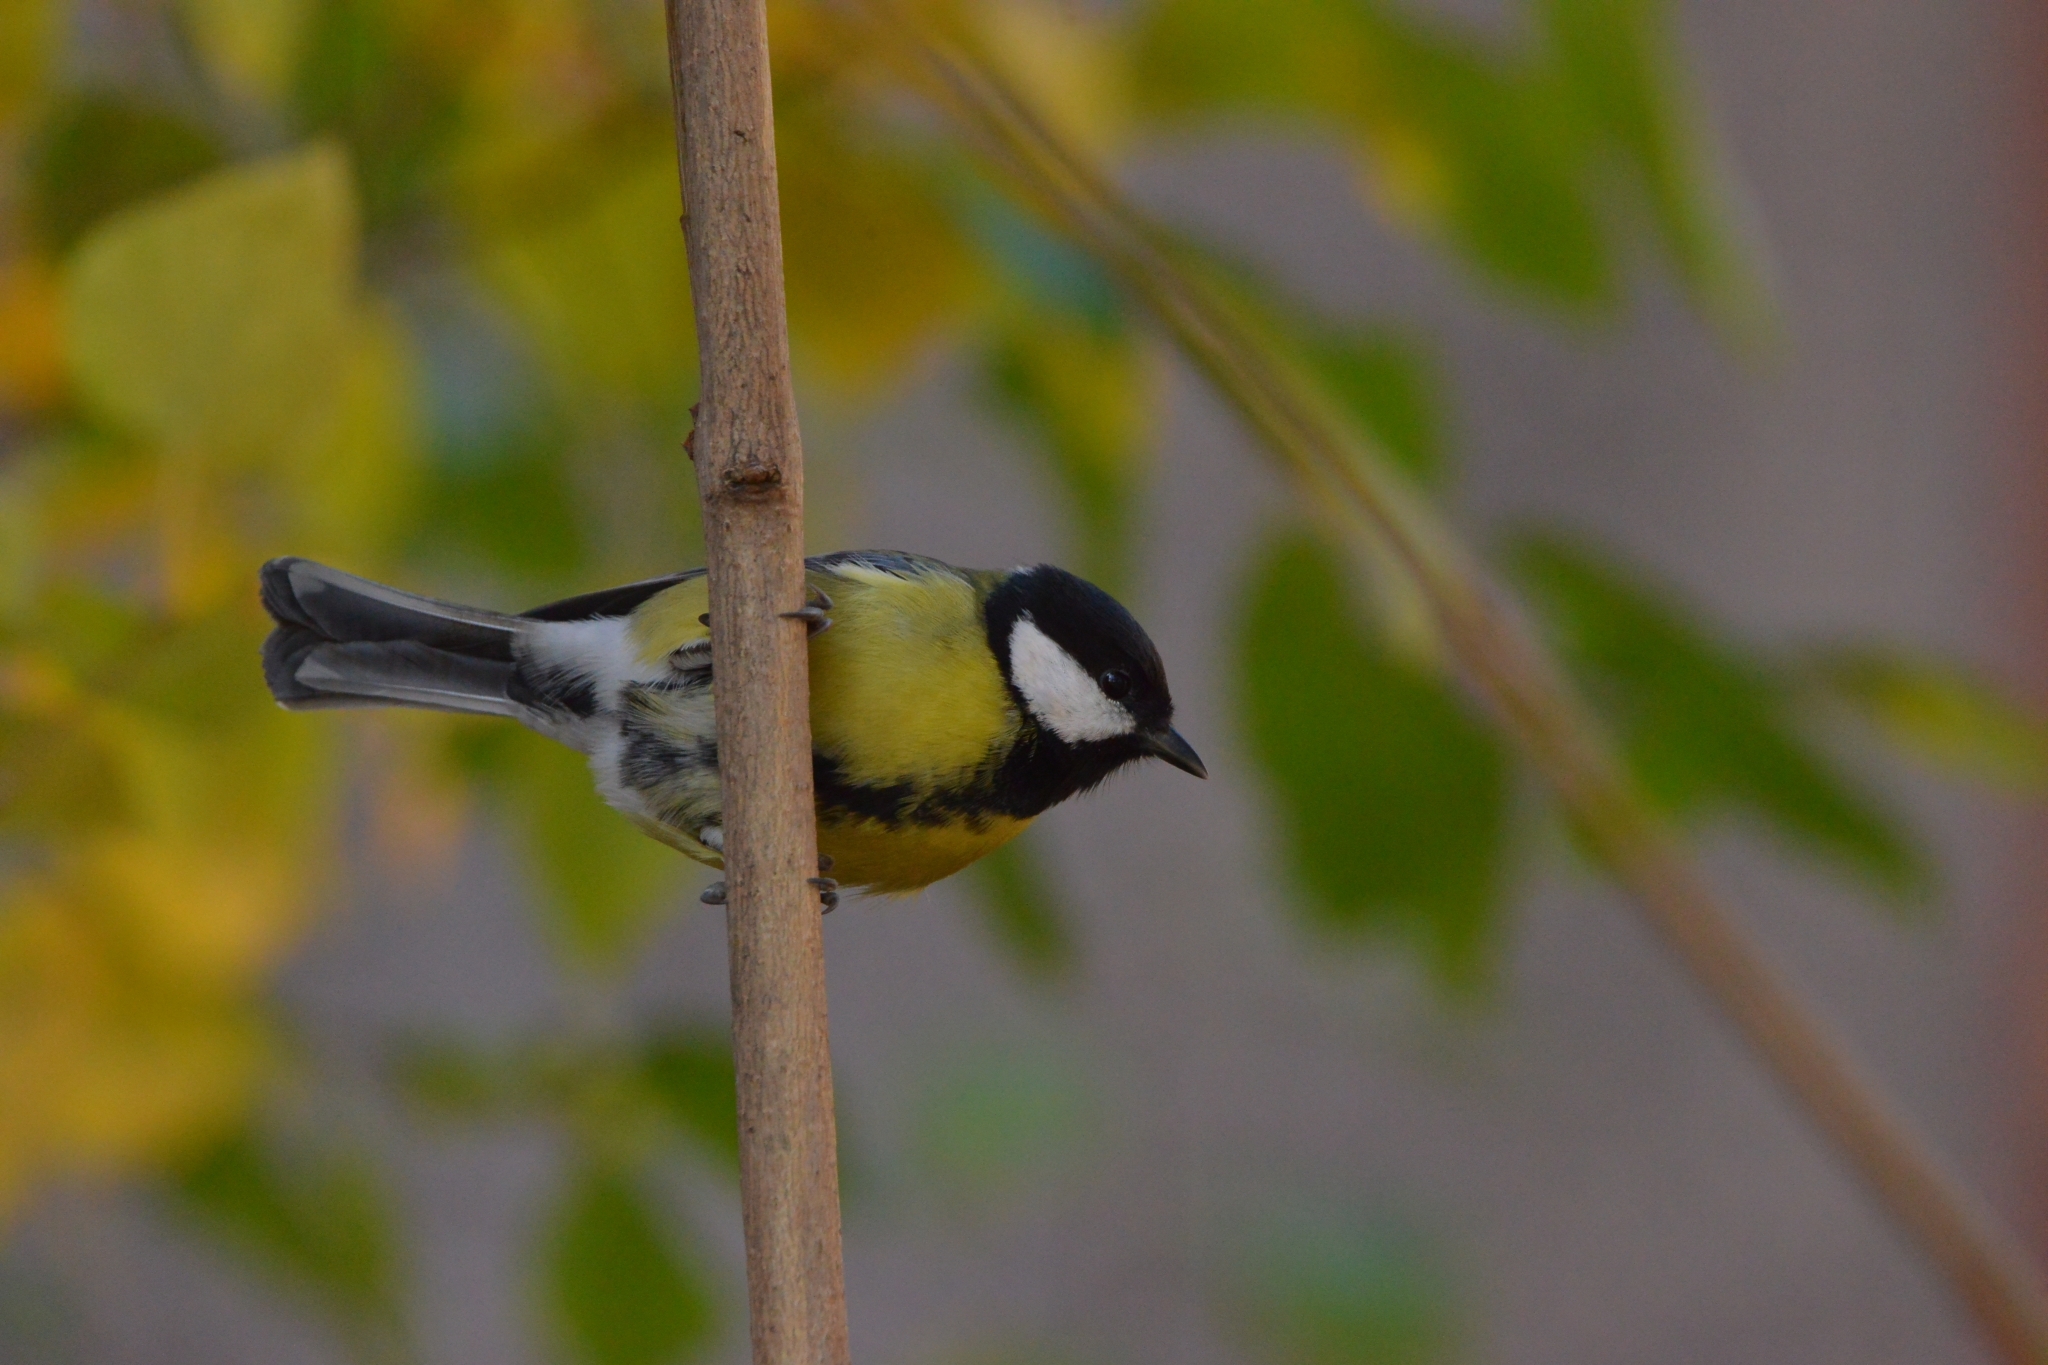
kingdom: Animalia
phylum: Chordata
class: Aves
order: Passeriformes
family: Paridae
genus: Parus
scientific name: Parus major
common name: Great tit
